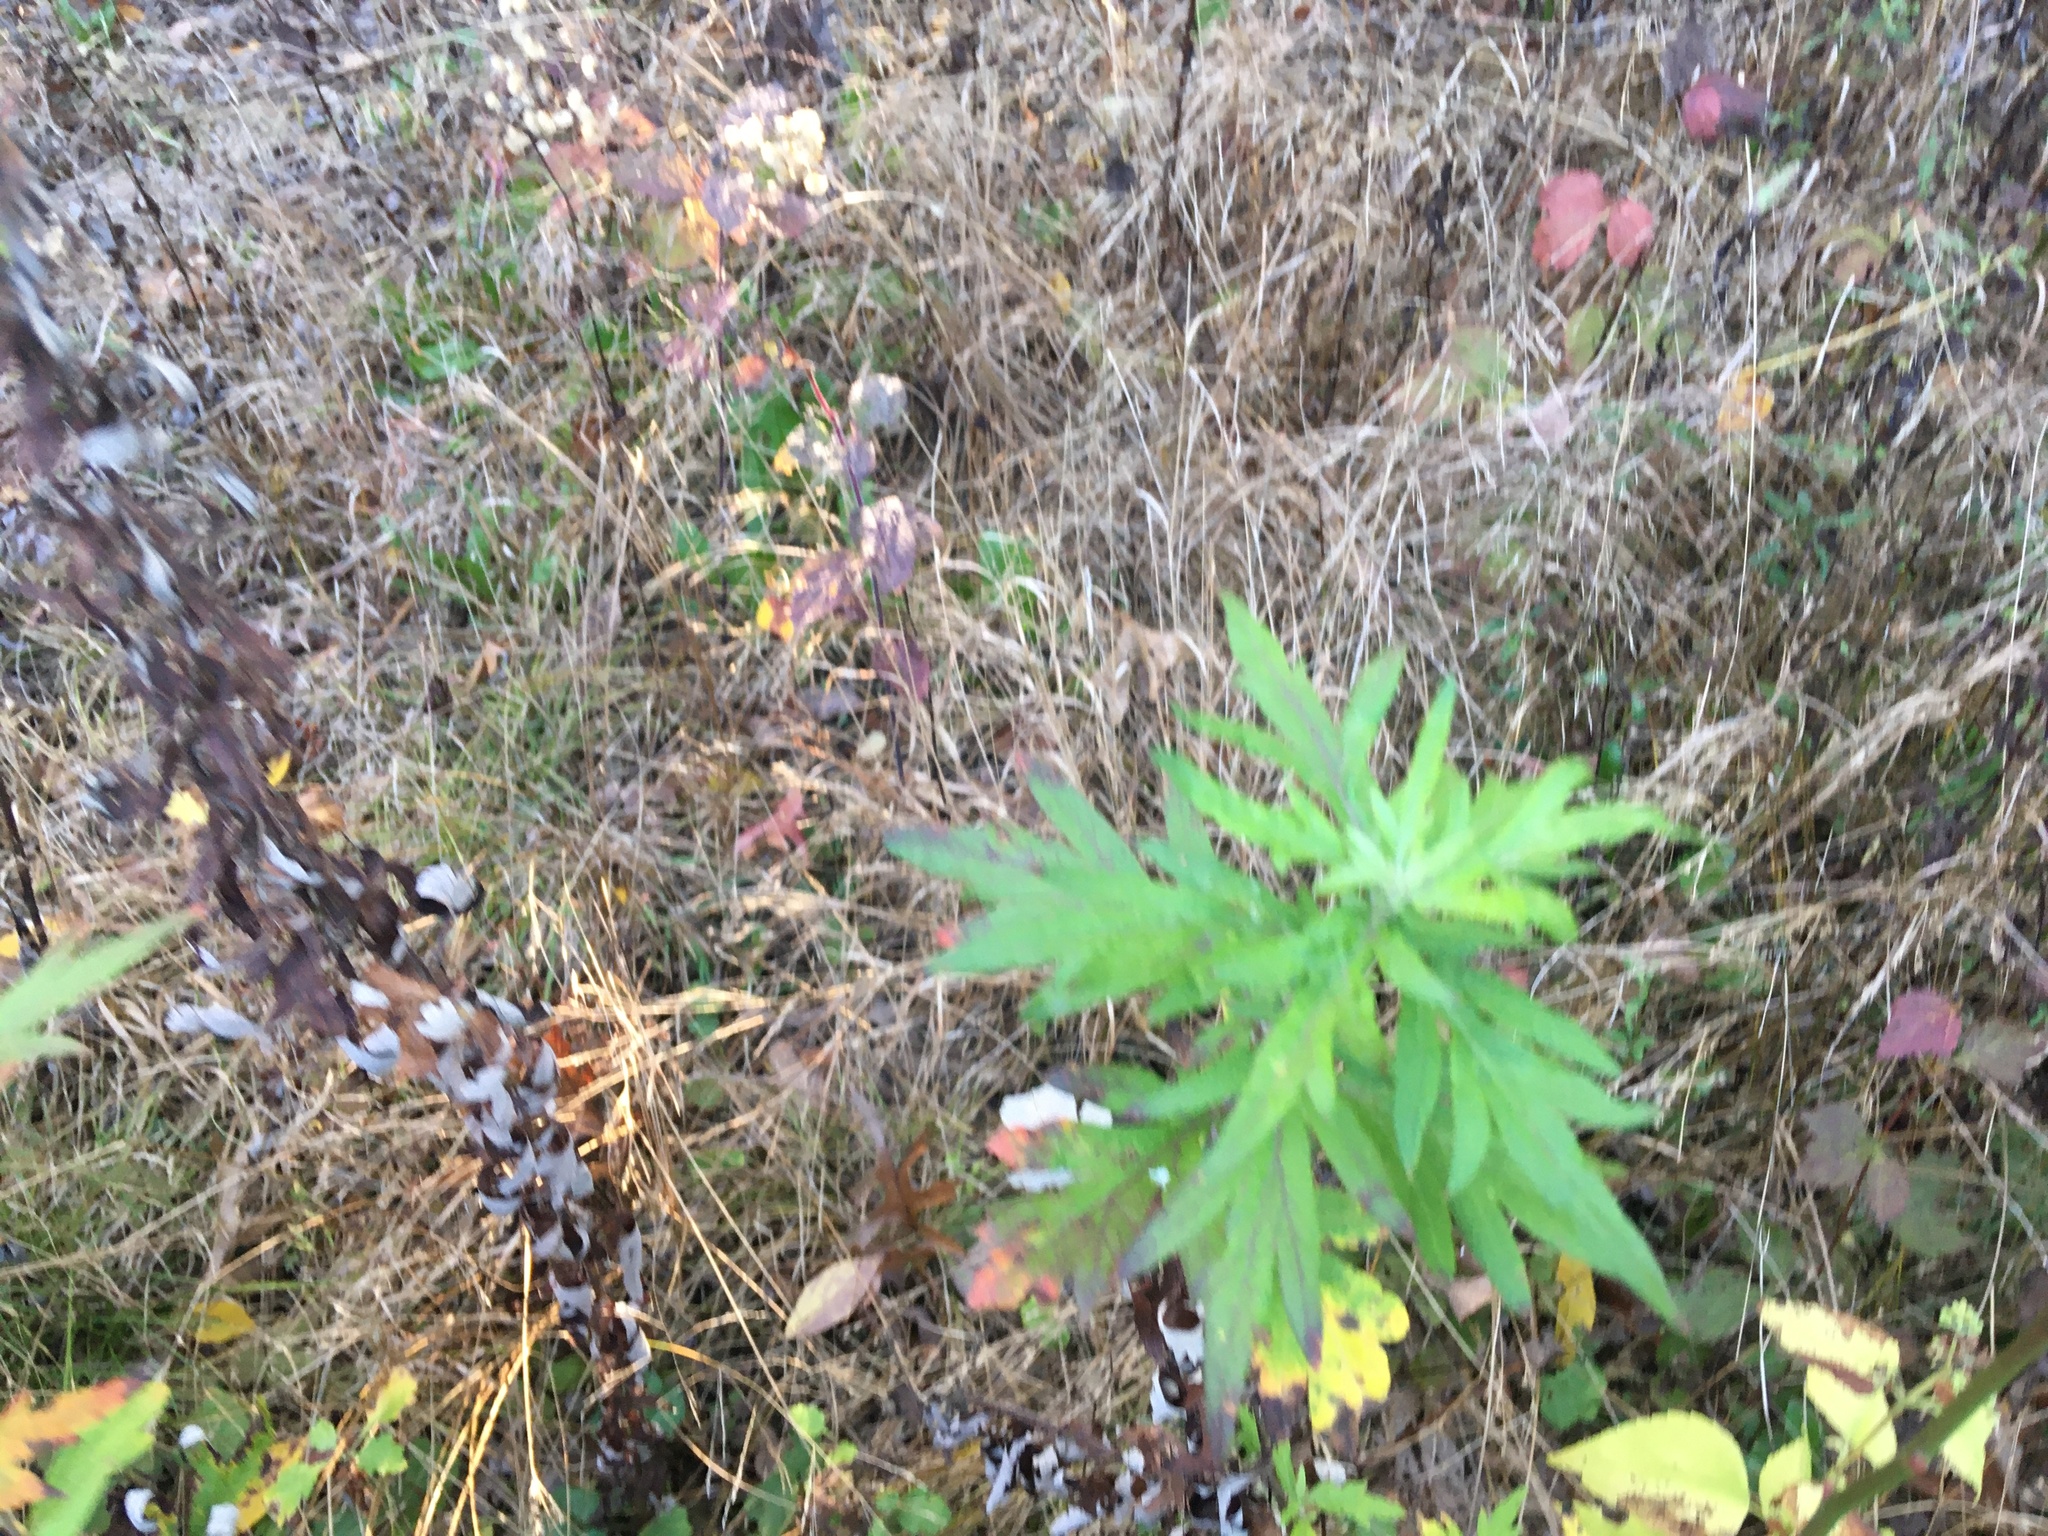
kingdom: Plantae
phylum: Tracheophyta
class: Magnoliopsida
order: Asterales
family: Asteraceae
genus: Artemisia
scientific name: Artemisia vulgaris
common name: Mugwort
